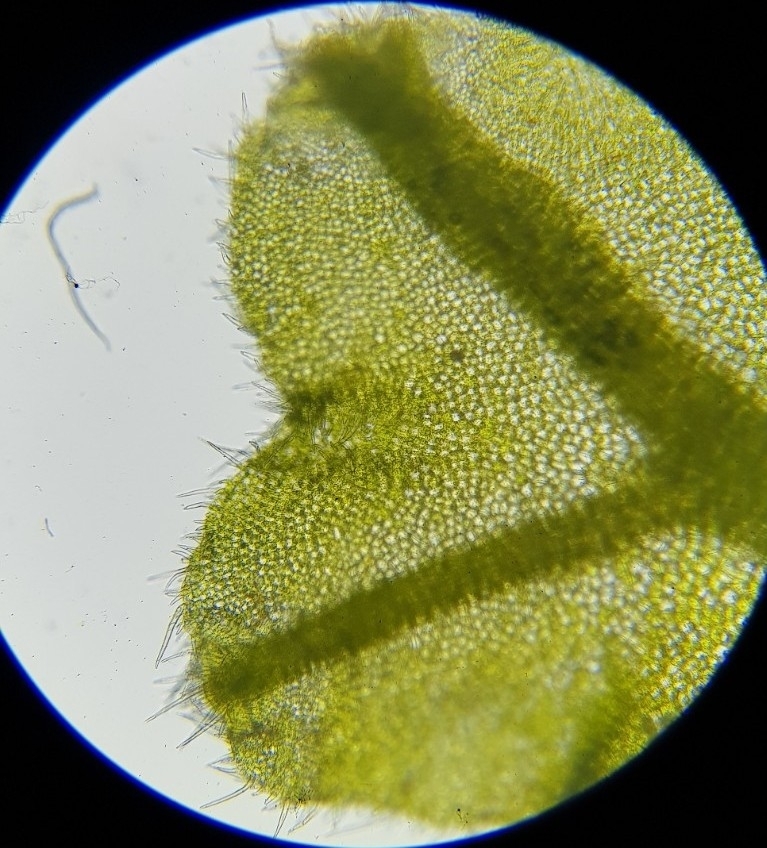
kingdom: Plantae
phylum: Marchantiophyta
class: Jungermanniopsida
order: Metzgeriales
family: Metzgeriaceae
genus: Metzgeria
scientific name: Metzgeria pubescens
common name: Downy veilwort
